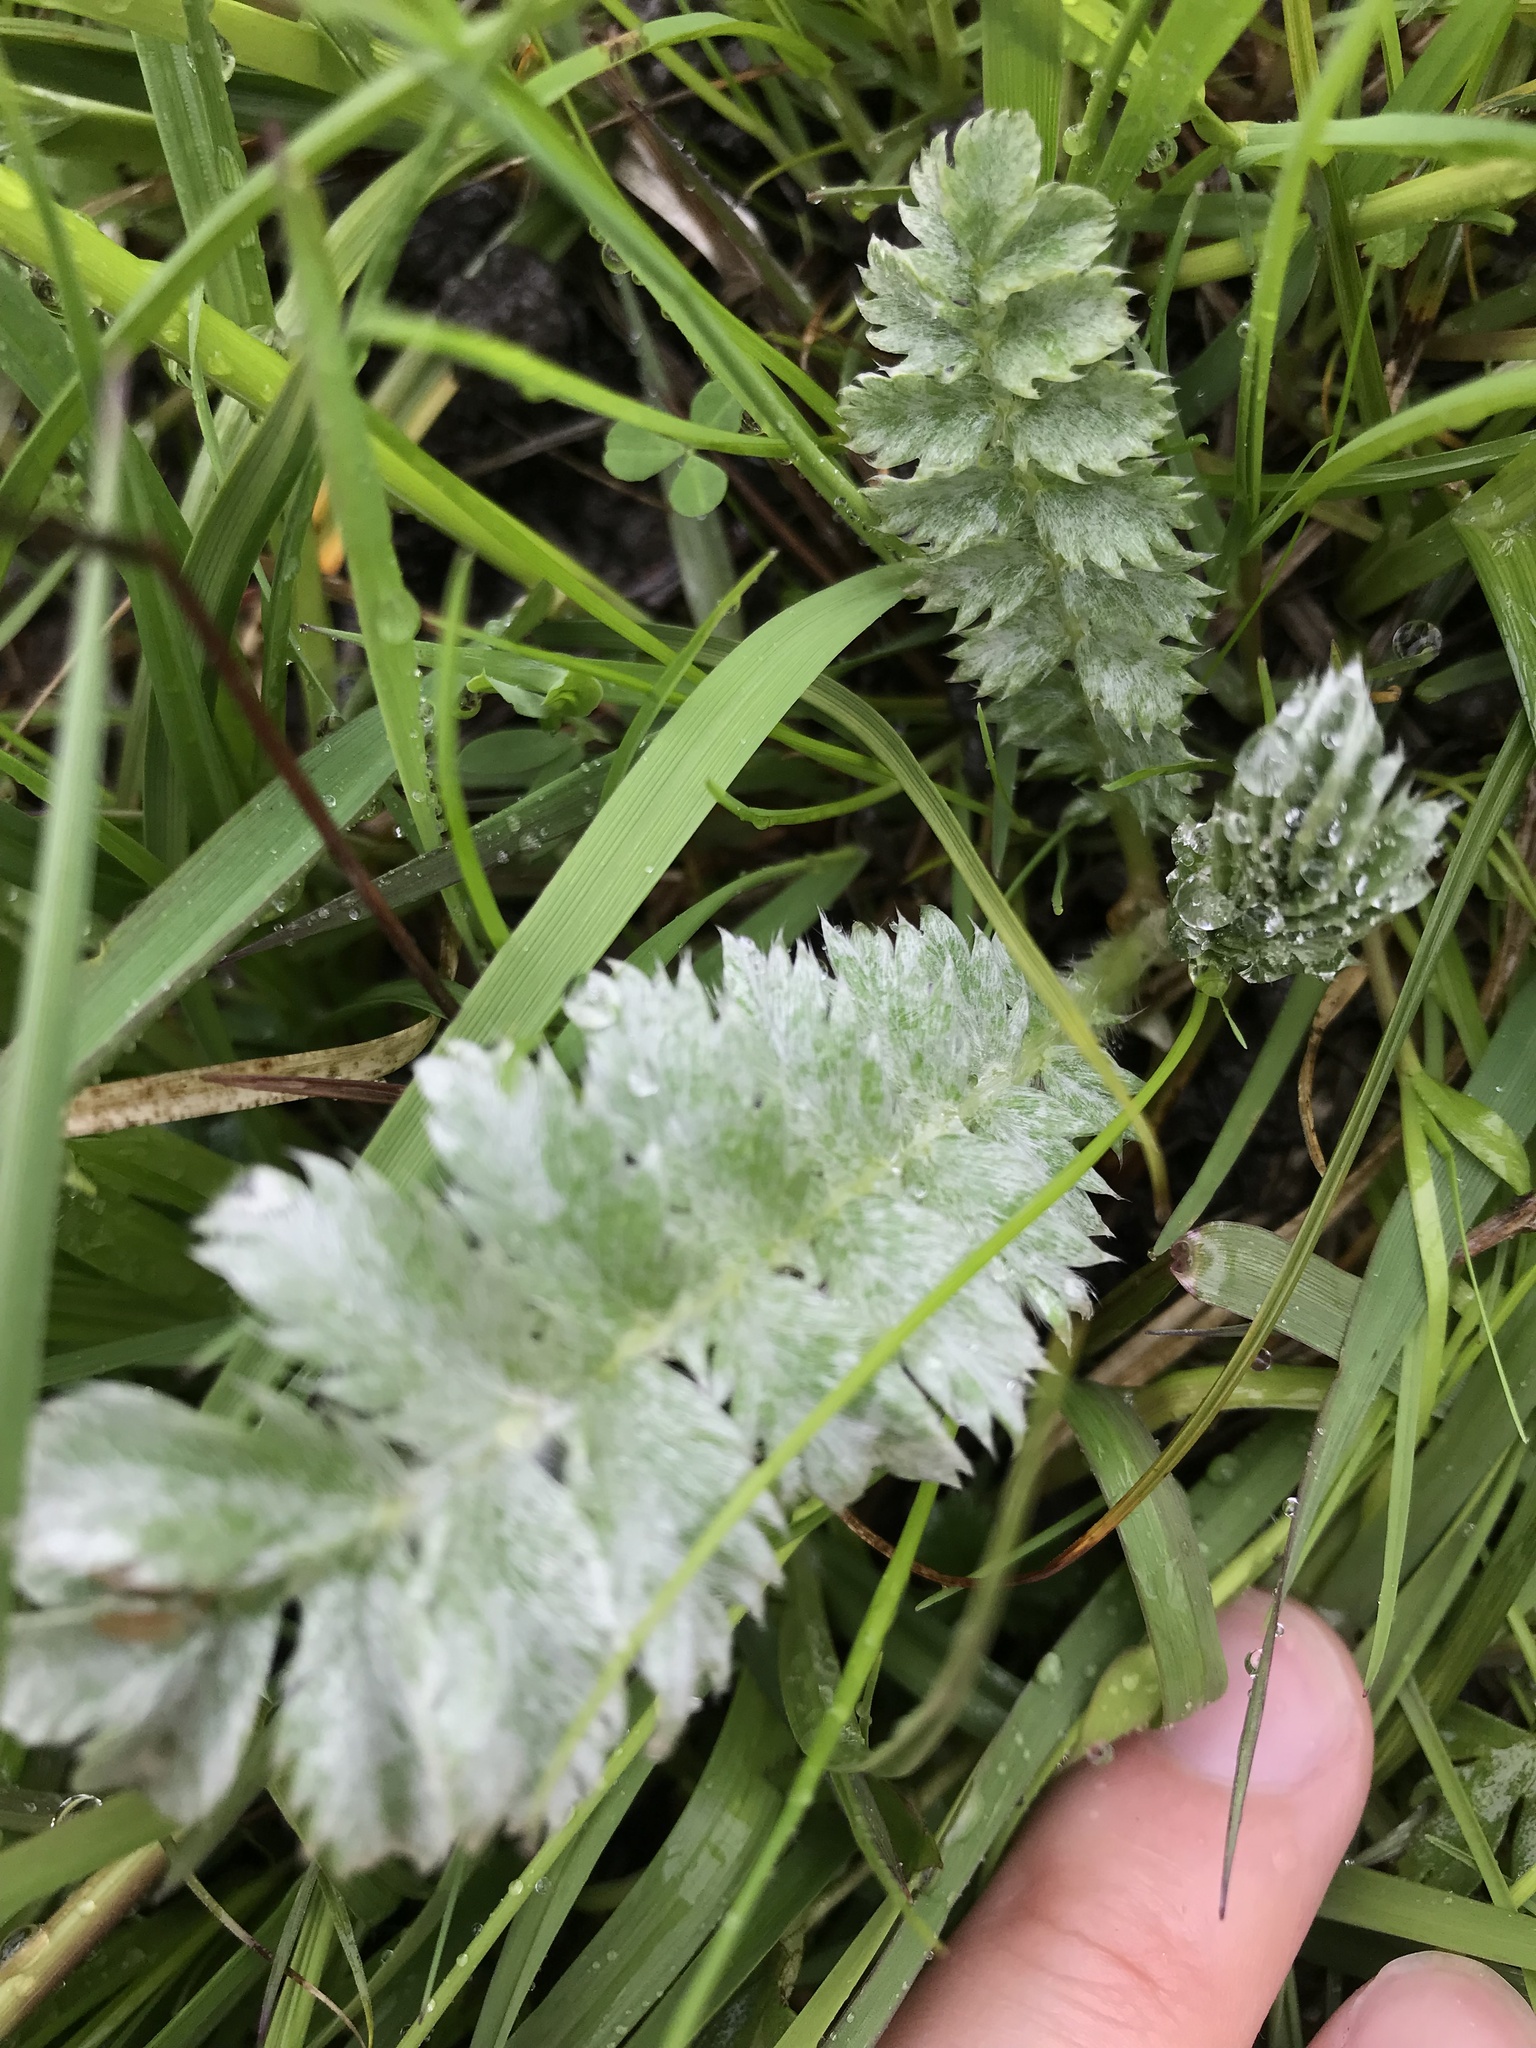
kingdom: Plantae
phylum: Tracheophyta
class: Magnoliopsida
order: Rosales
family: Rosaceae
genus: Argentina
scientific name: Argentina anserina
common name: Common silverweed
